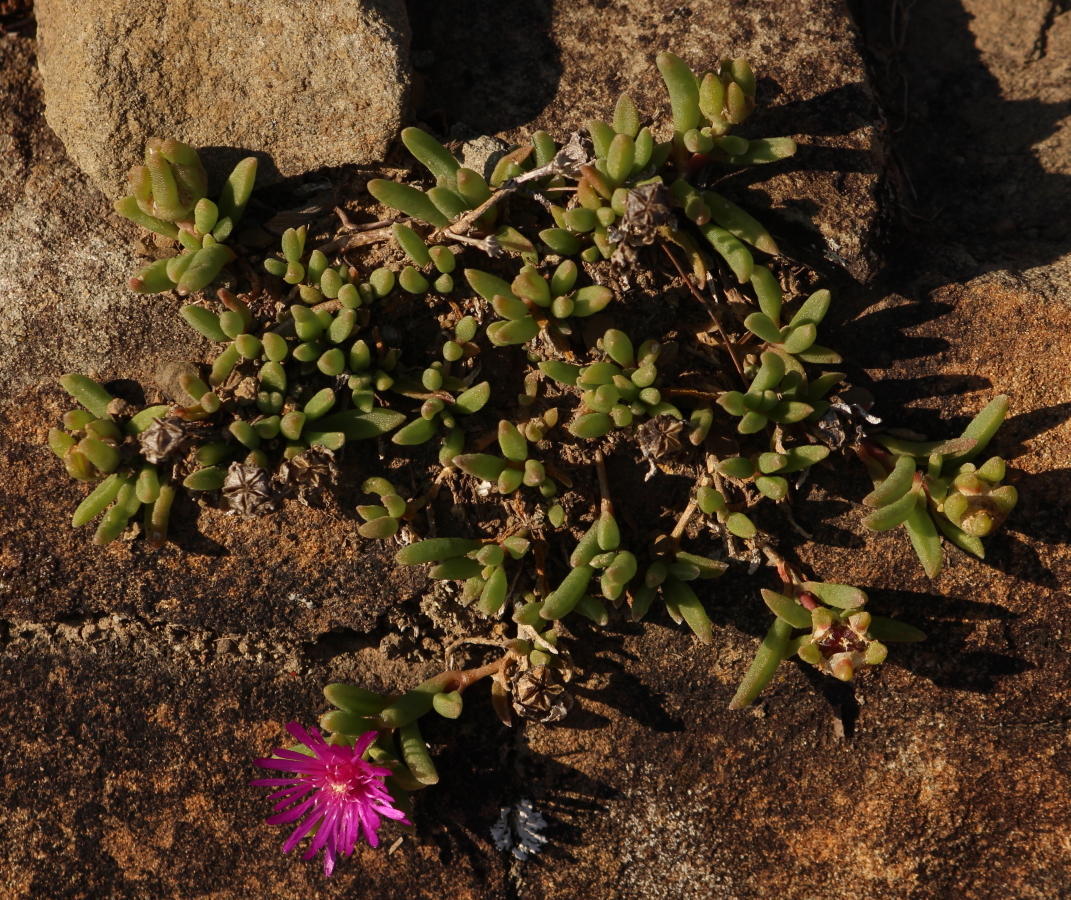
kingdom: Plantae
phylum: Tracheophyta
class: Magnoliopsida
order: Caryophyllales
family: Aizoaceae
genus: Delosperma
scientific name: Delosperma lavisiae
